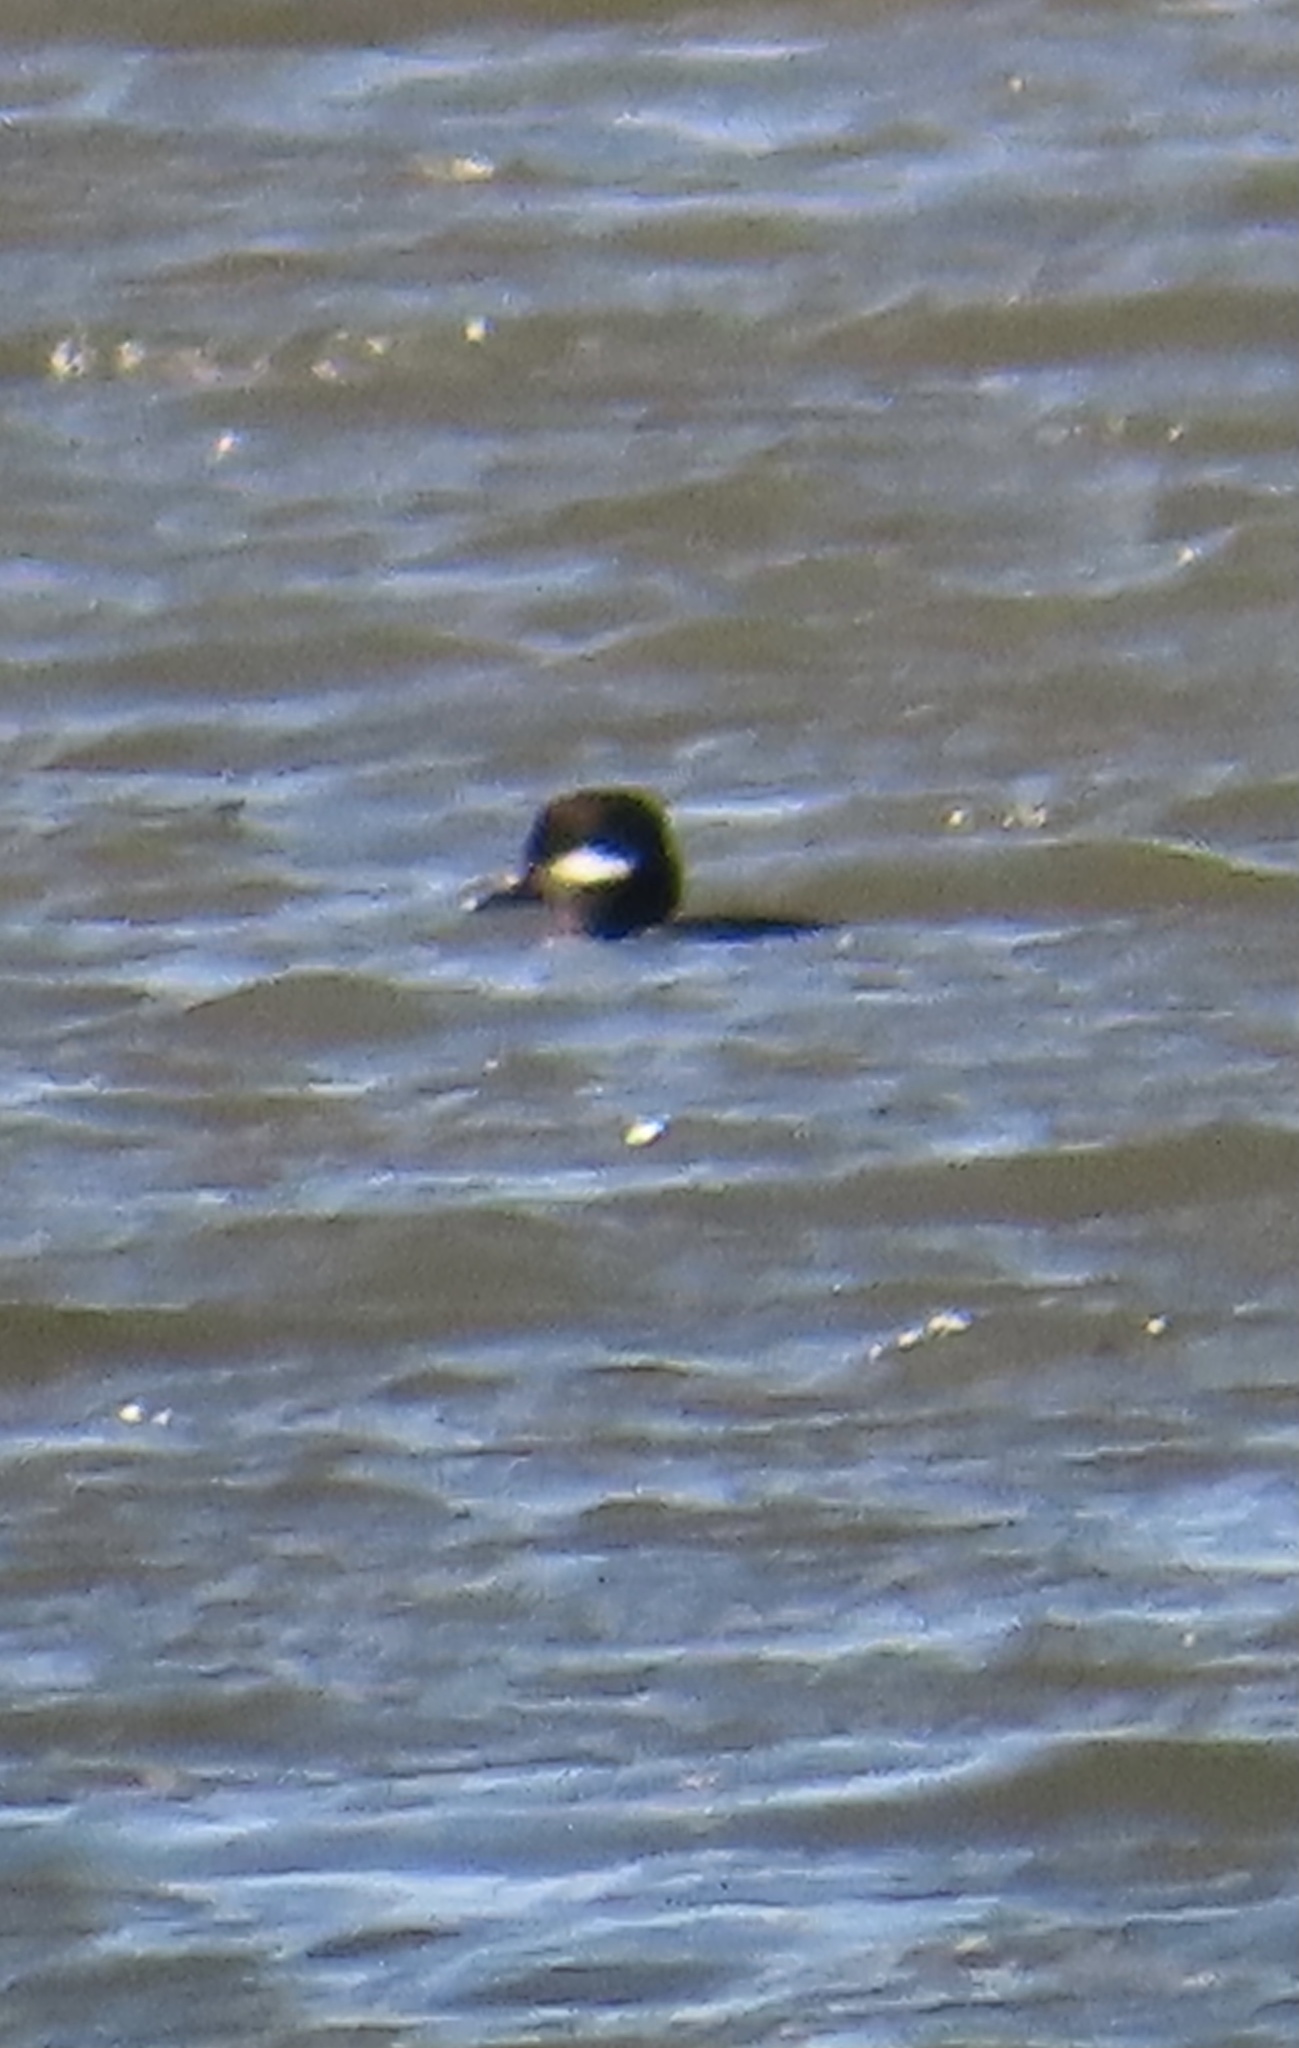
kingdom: Animalia
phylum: Chordata
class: Aves
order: Anseriformes
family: Anatidae
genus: Bucephala
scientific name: Bucephala albeola
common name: Bufflehead
